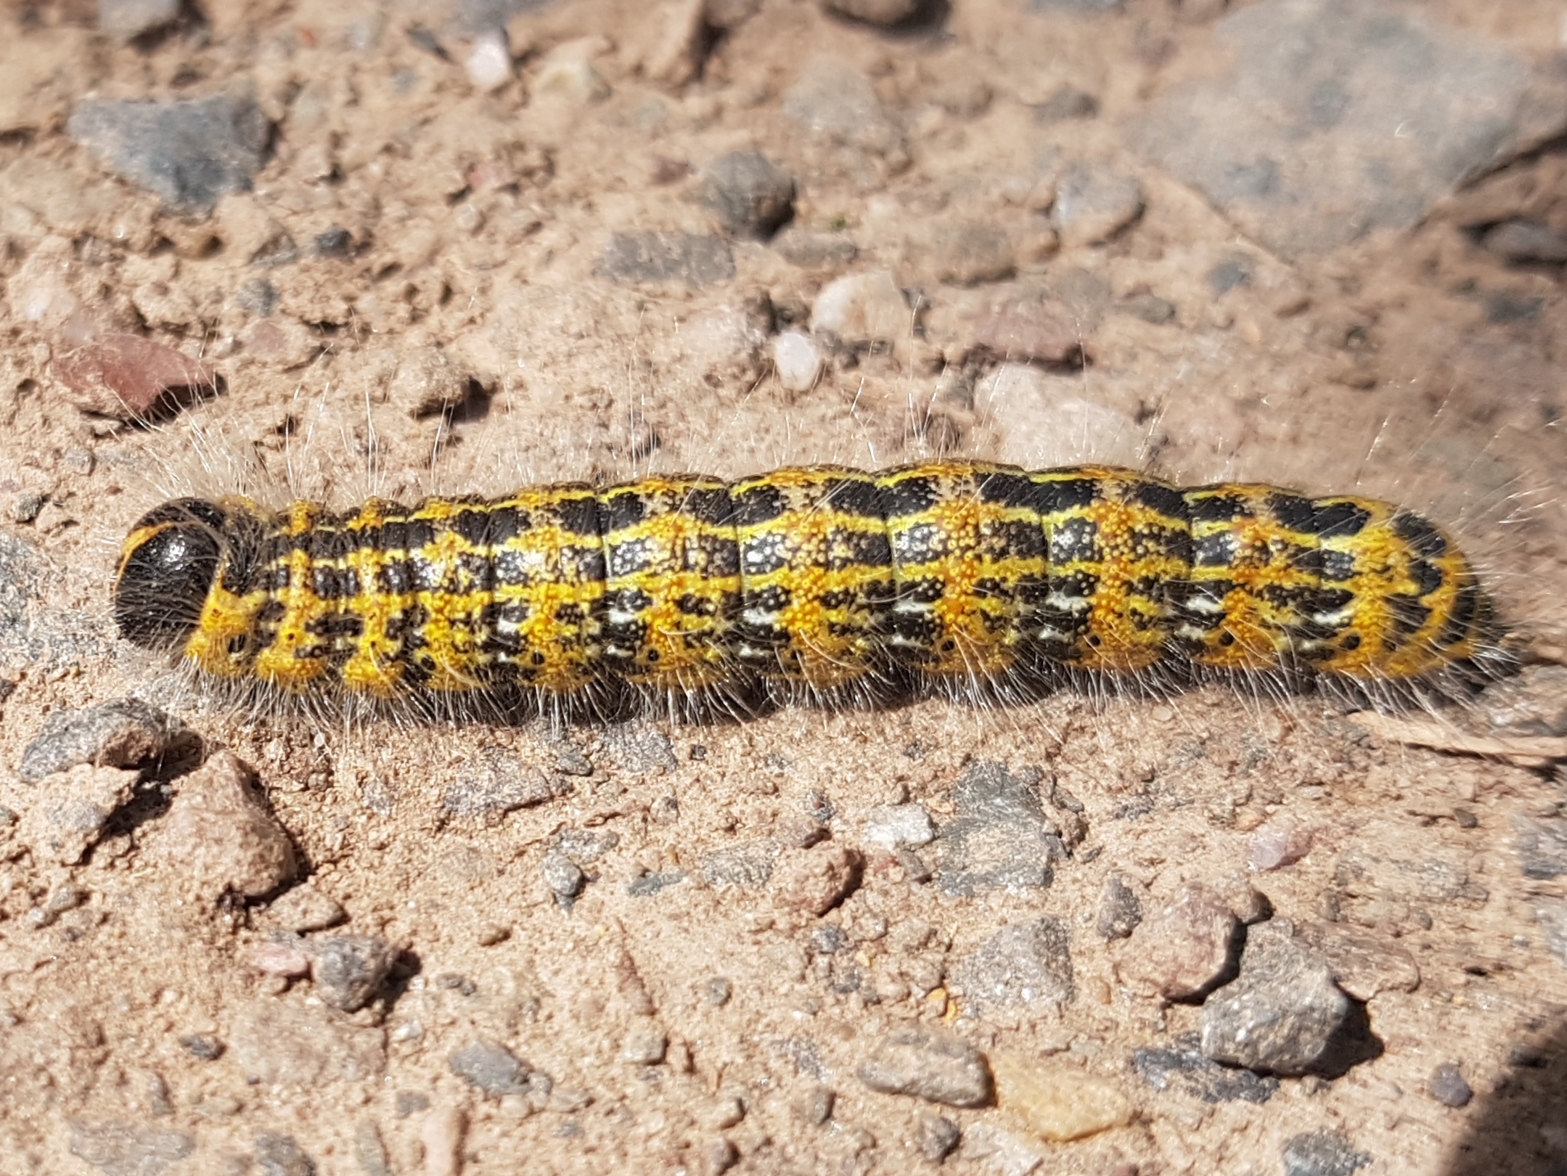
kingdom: Animalia
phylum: Arthropoda
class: Insecta
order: Lepidoptera
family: Notodontidae
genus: Phalera
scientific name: Phalera bucephala
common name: Buff-tip
